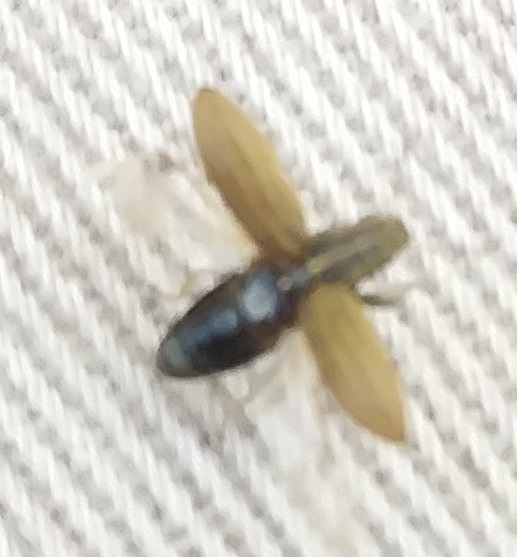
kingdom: Animalia
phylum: Arthropoda
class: Insecta
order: Coleoptera
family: Curculionidae
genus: Sitona
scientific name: Sitona lineatus
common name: Weevil
